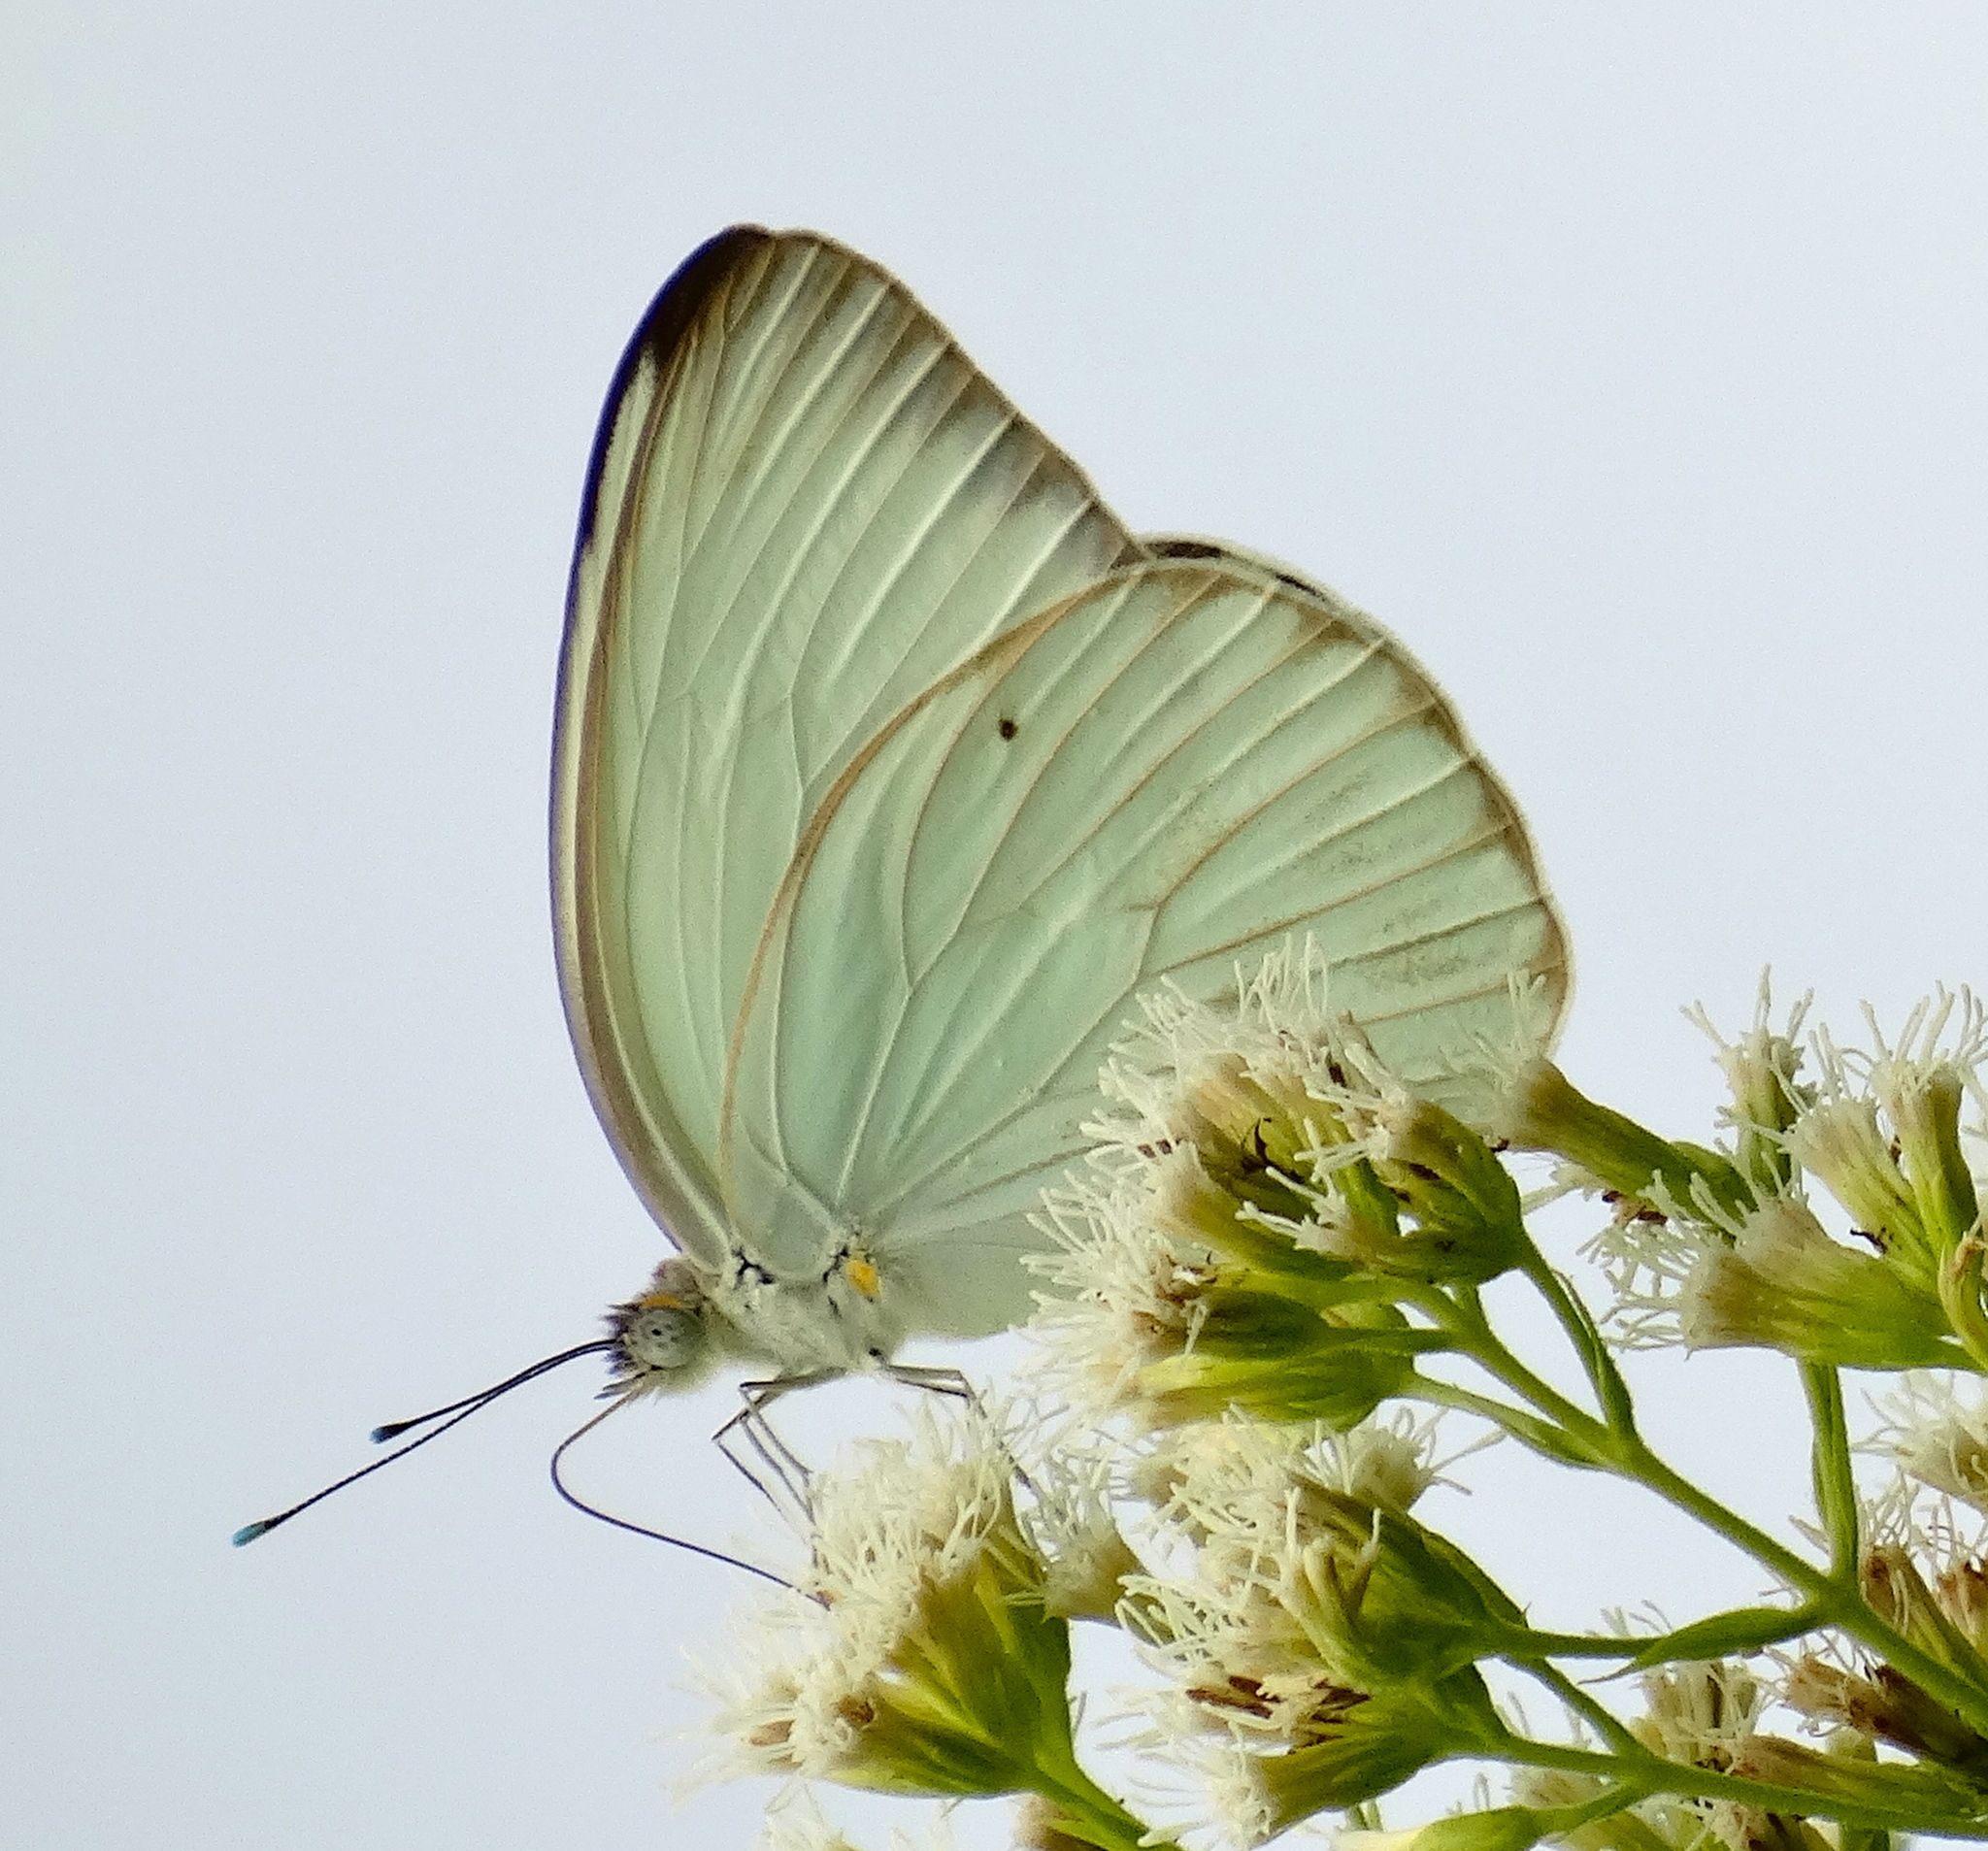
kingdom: Animalia
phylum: Arthropoda
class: Insecta
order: Lepidoptera
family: Pieridae
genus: Ascia
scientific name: Ascia monuste
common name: Great southern white
